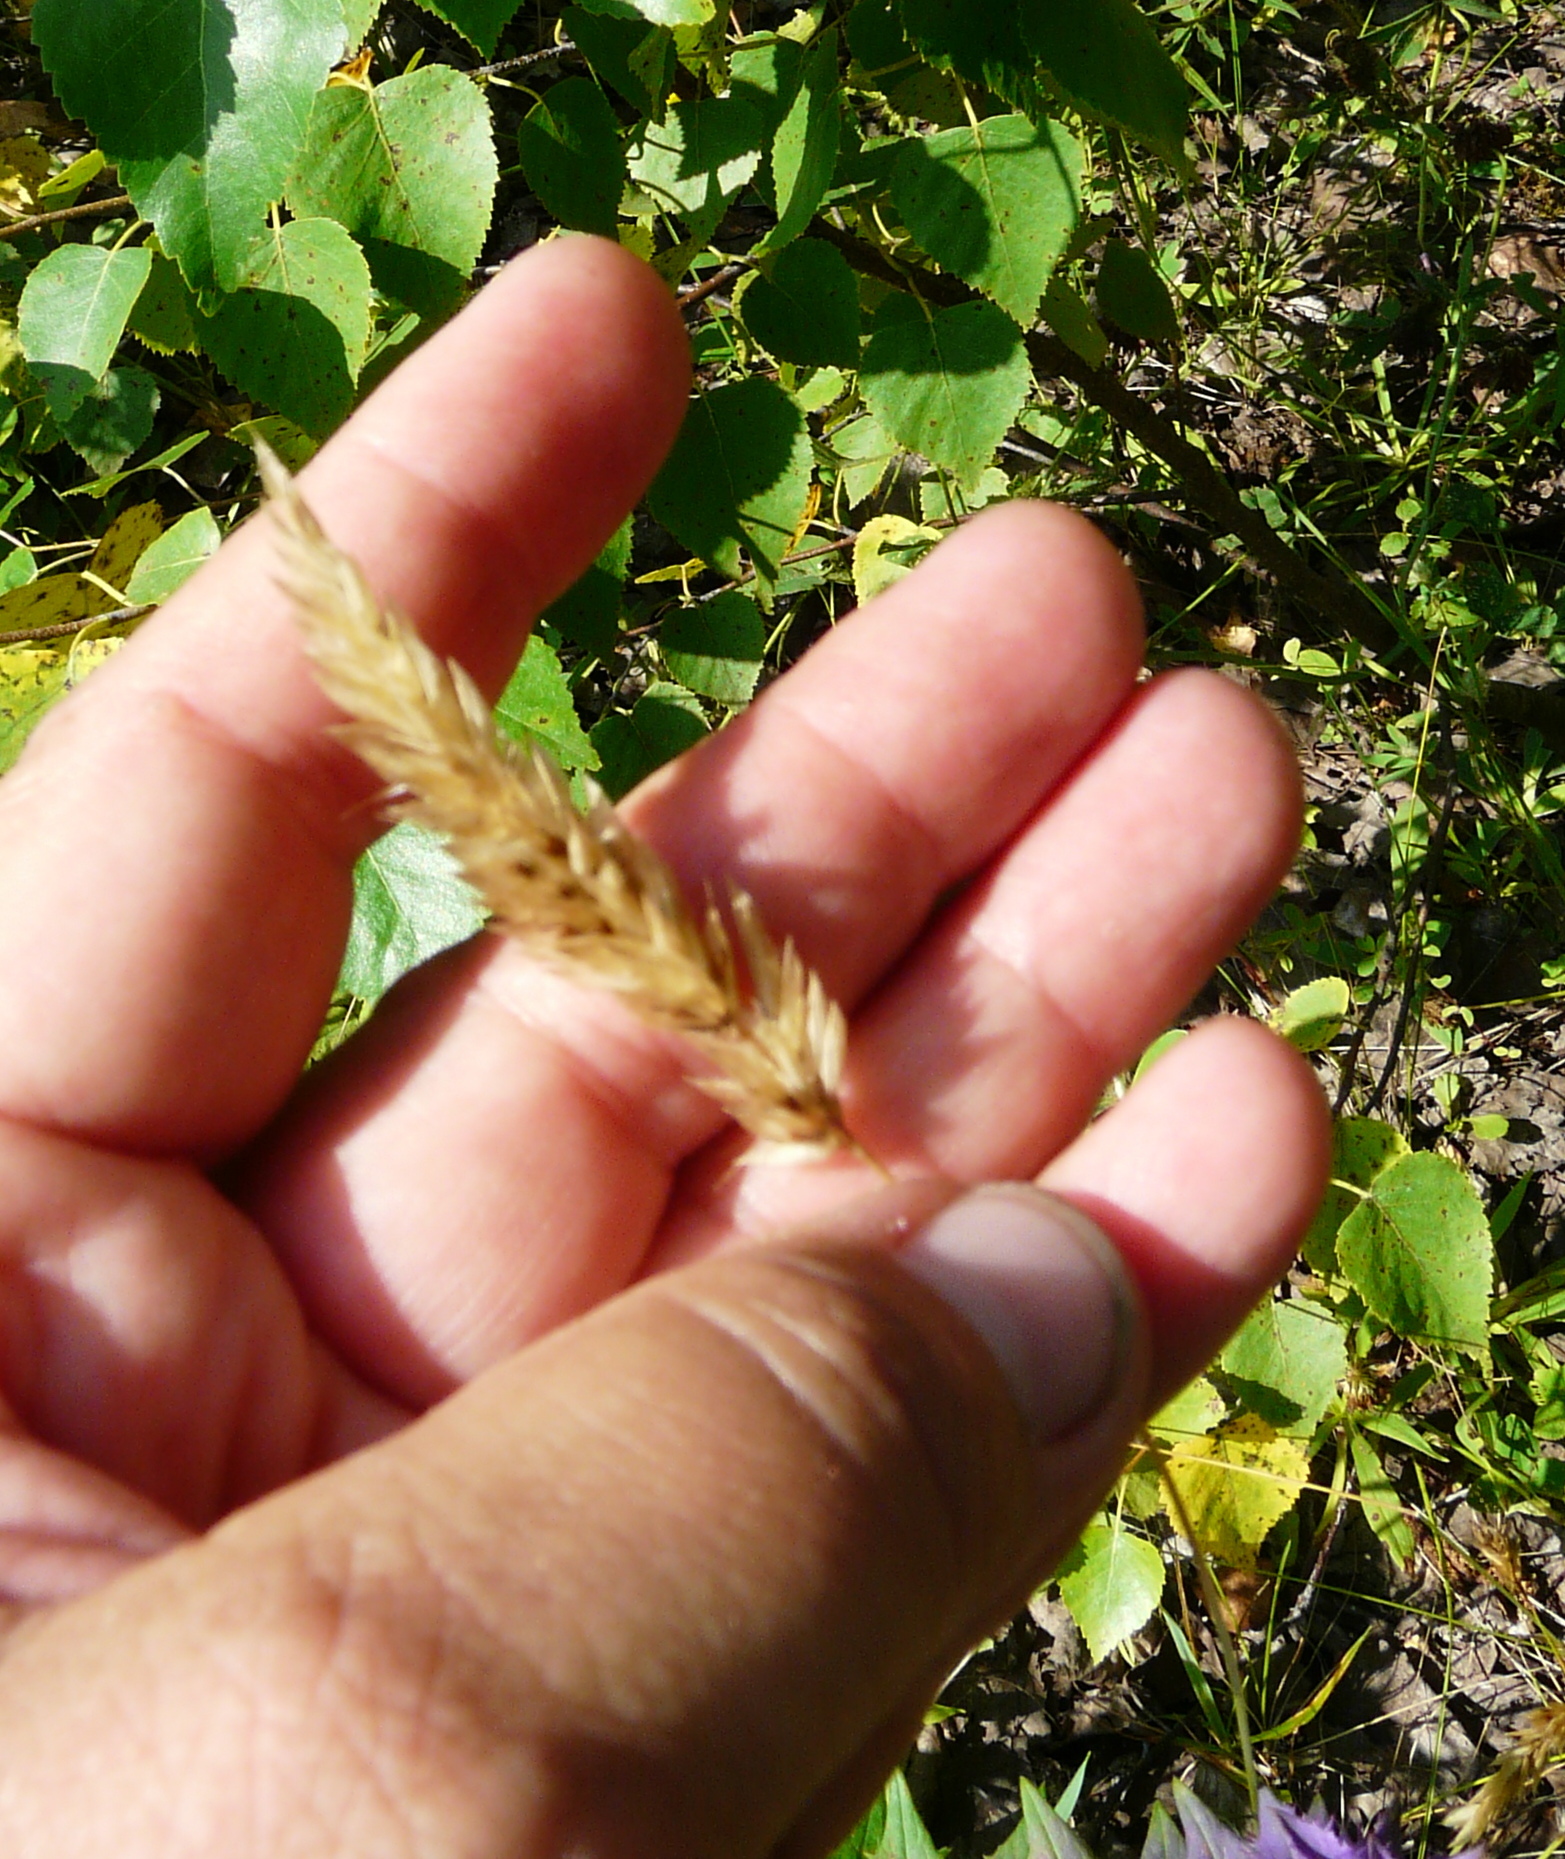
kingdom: Plantae
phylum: Tracheophyta
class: Liliopsida
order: Poales
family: Poaceae
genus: Anthoxanthum
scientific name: Anthoxanthum odoratum
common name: Sweet vernalgrass
